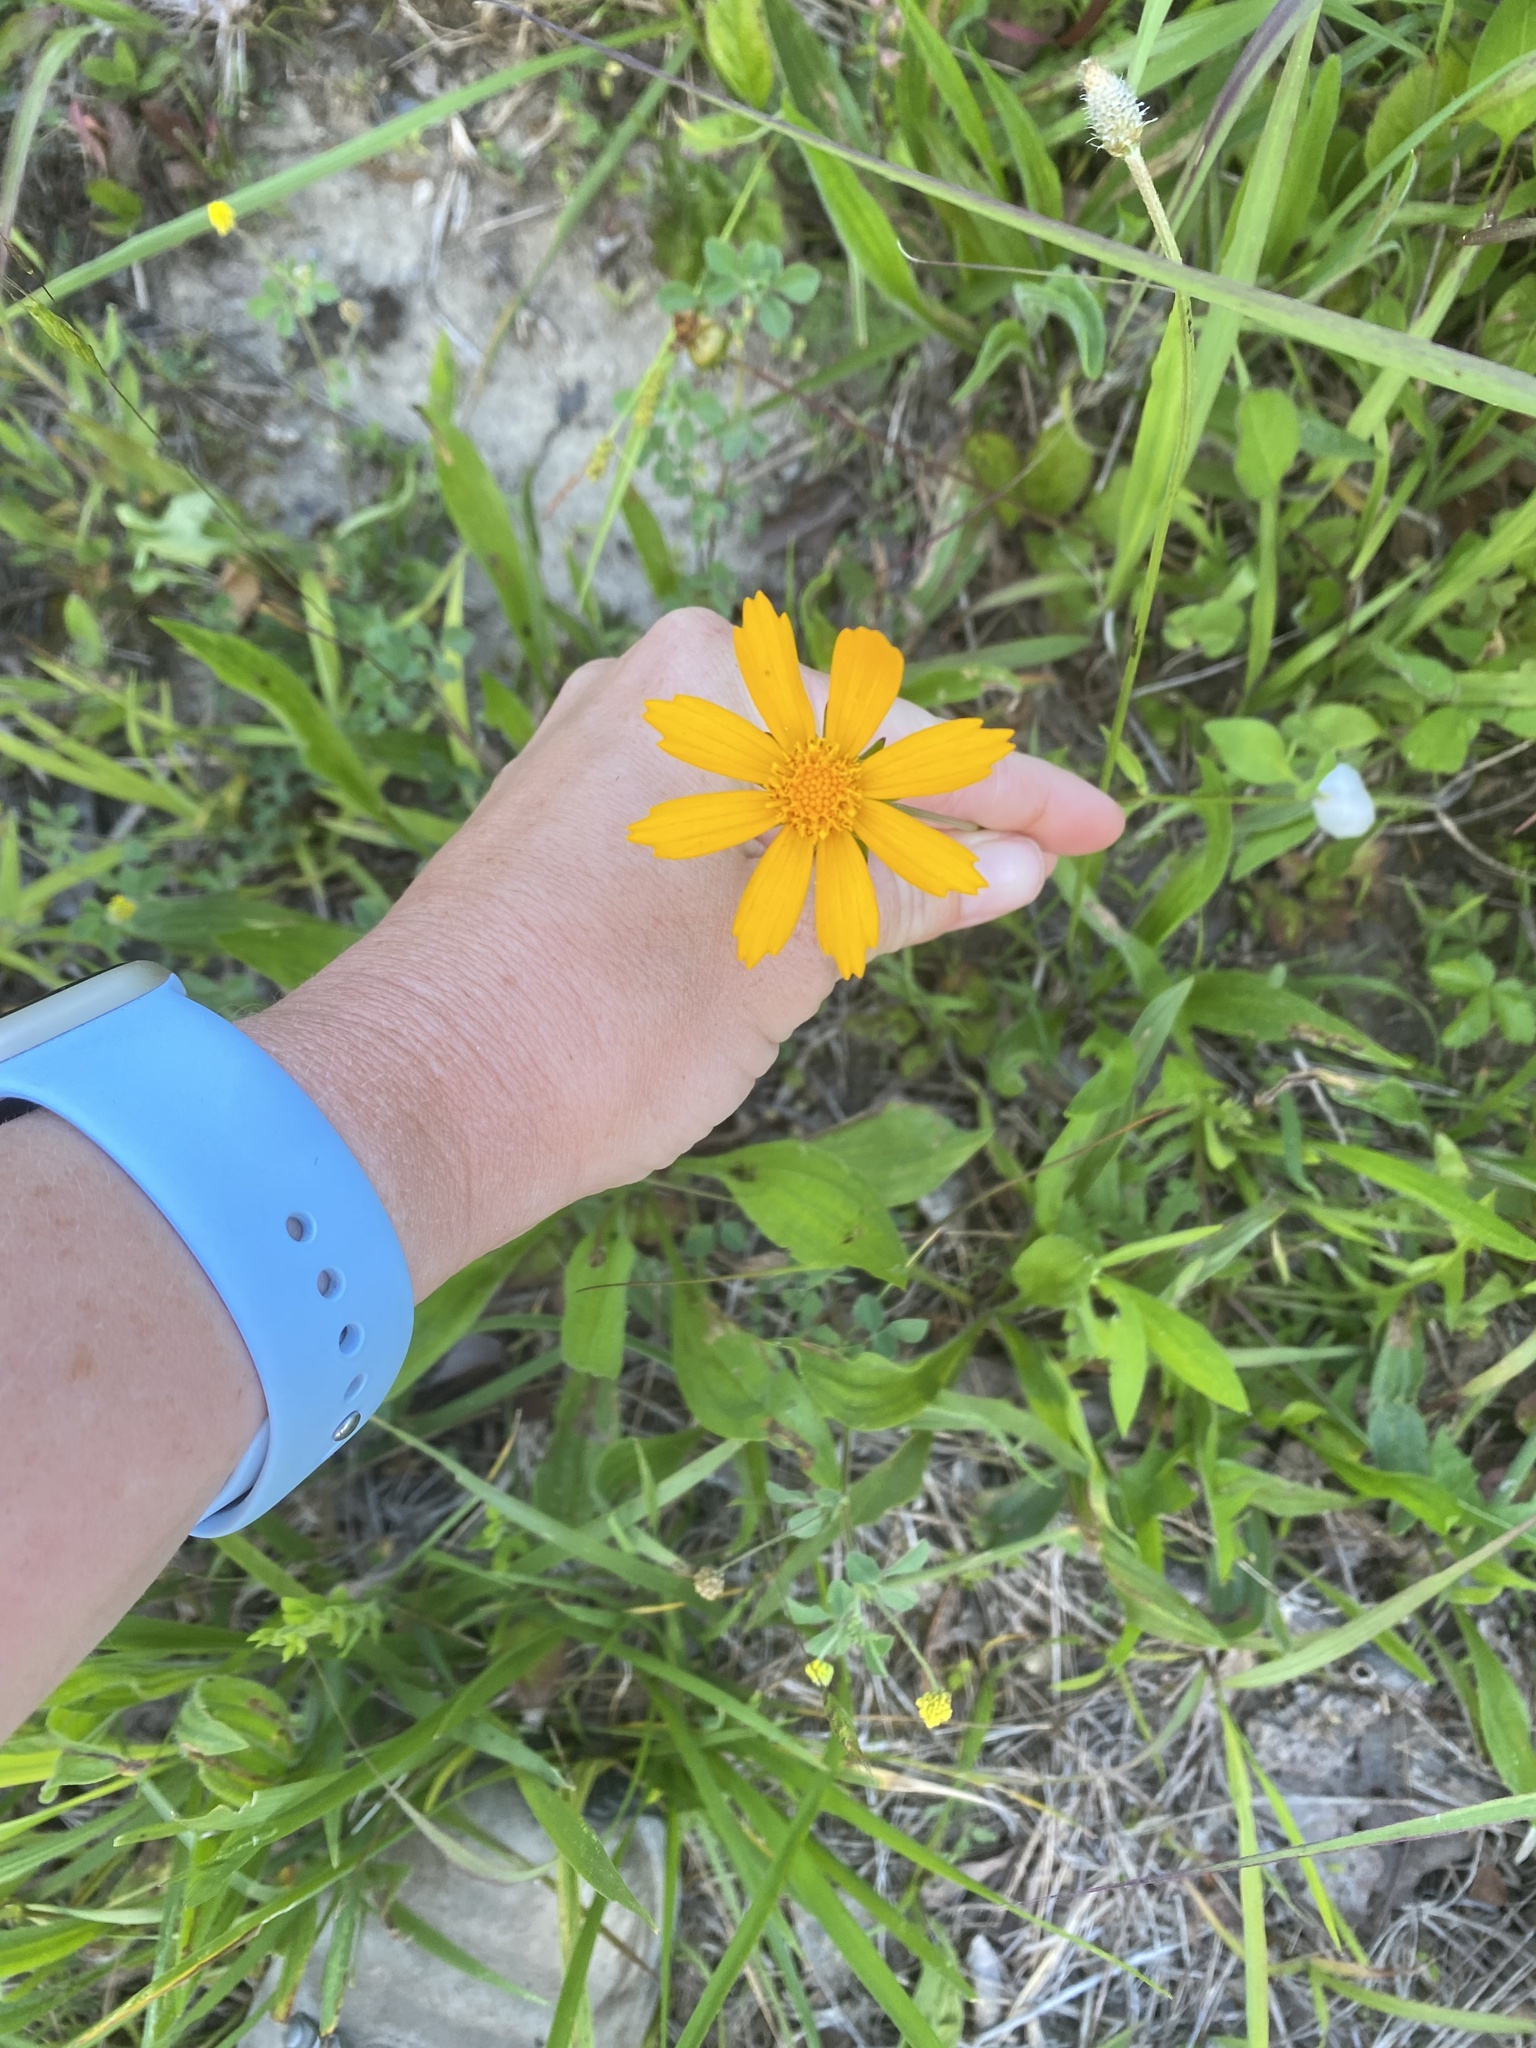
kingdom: Plantae
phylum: Tracheophyta
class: Magnoliopsida
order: Asterales
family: Asteraceae
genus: Coreopsis
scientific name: Coreopsis auriculata
